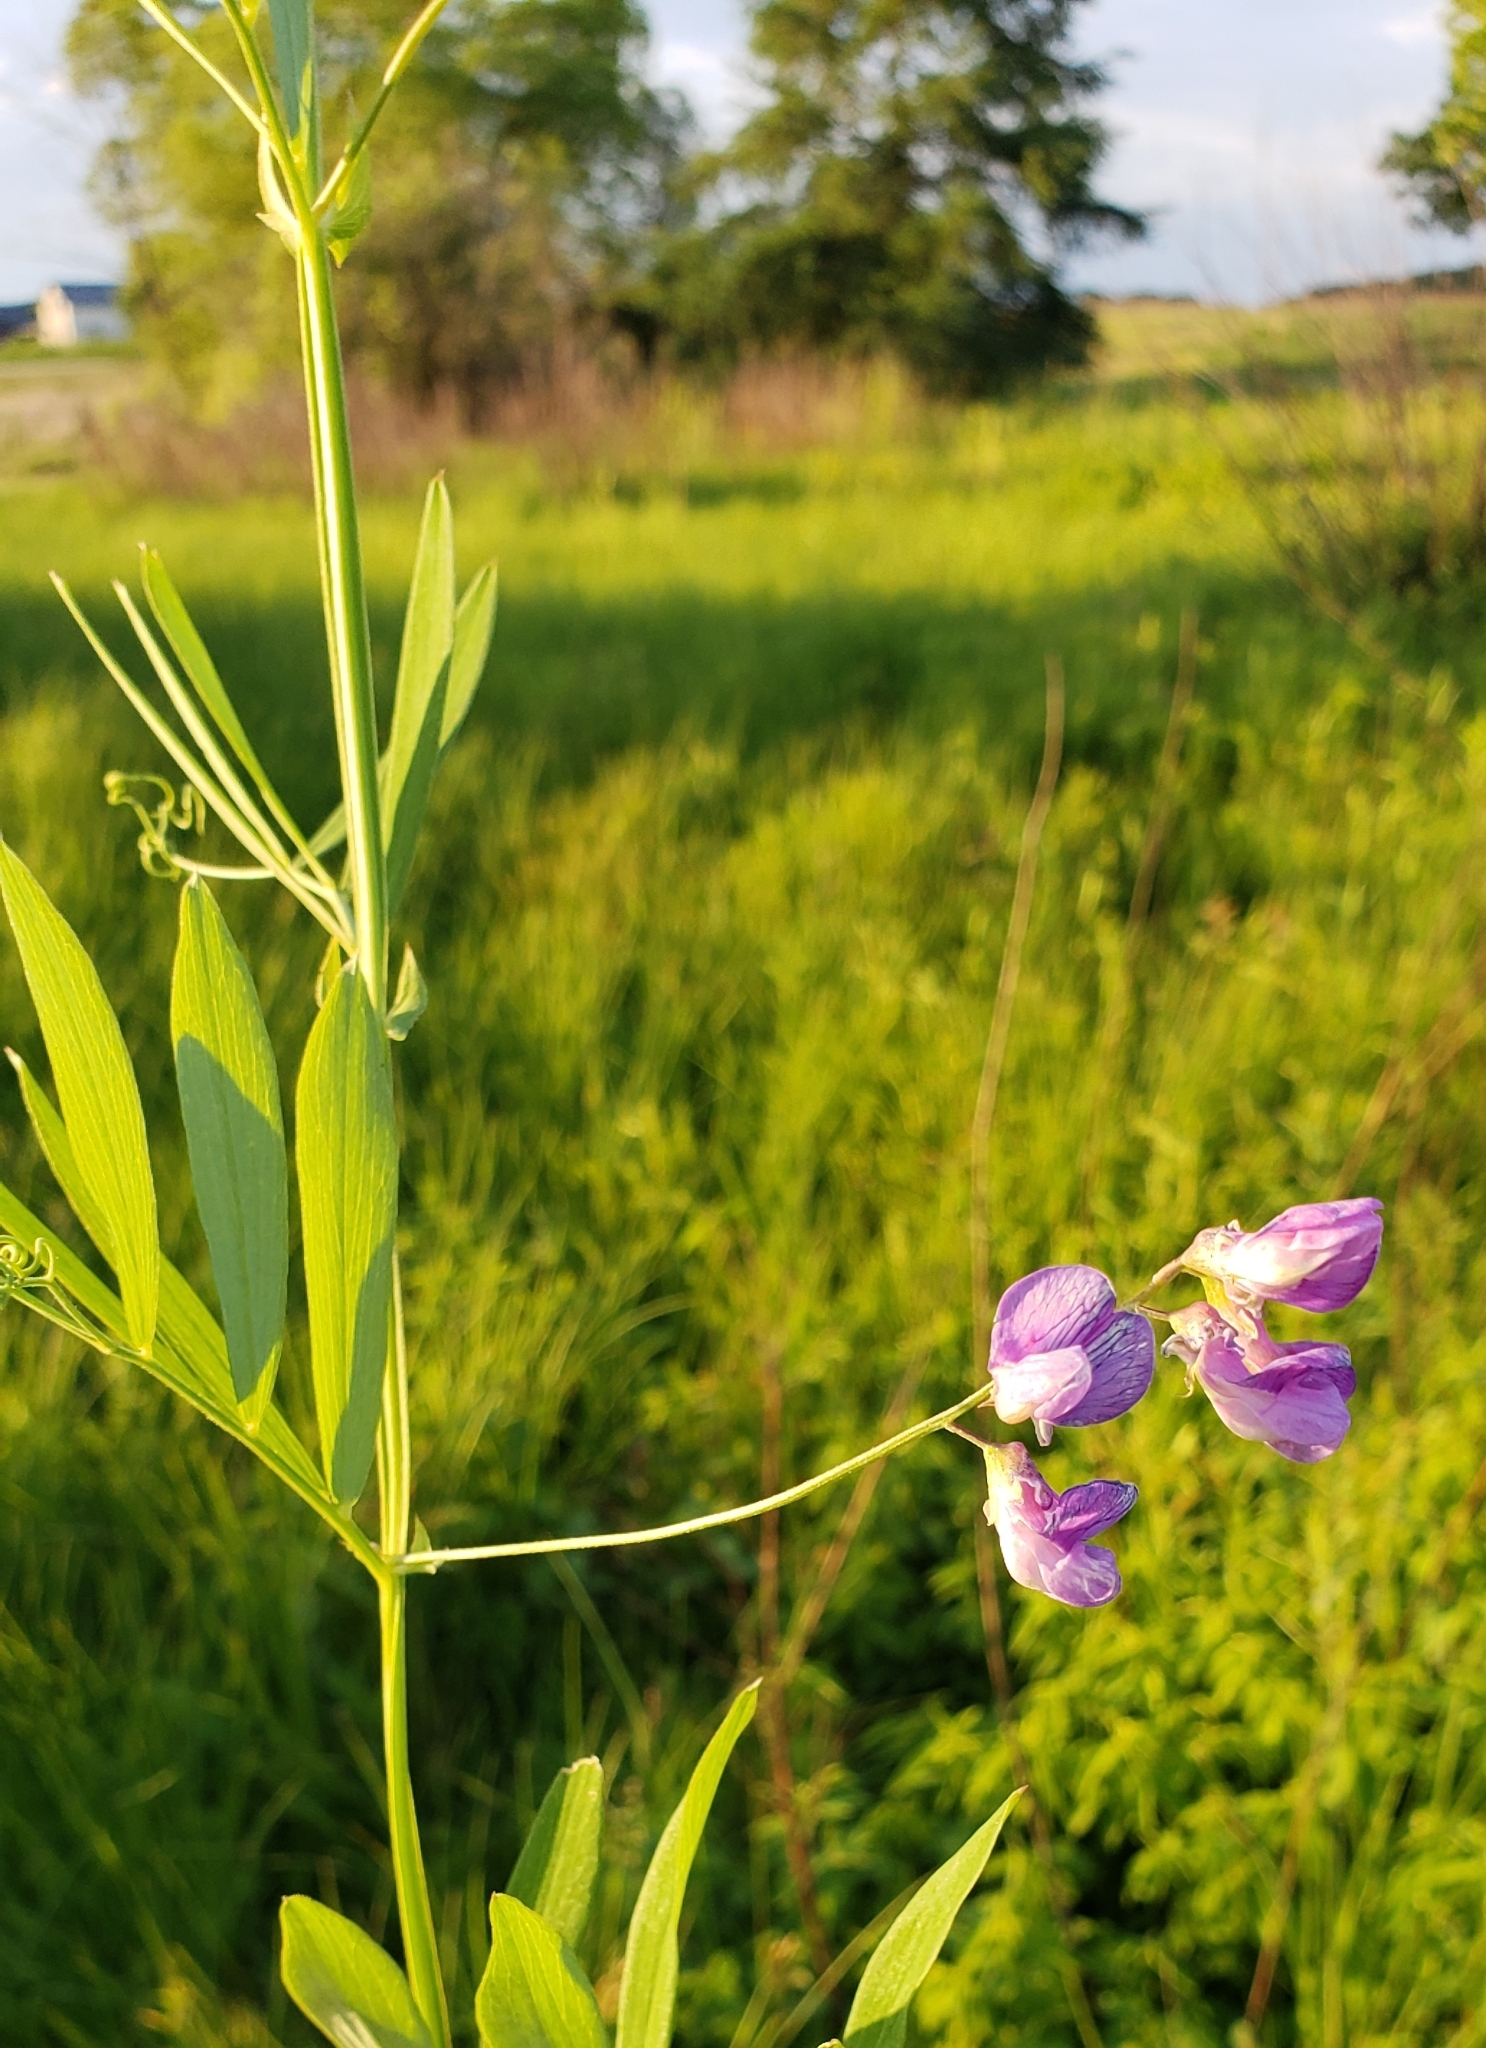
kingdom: Plantae
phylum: Tracheophyta
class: Magnoliopsida
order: Fabales
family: Fabaceae
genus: Lathyrus
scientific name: Lathyrus palustris
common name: Marsh pea
